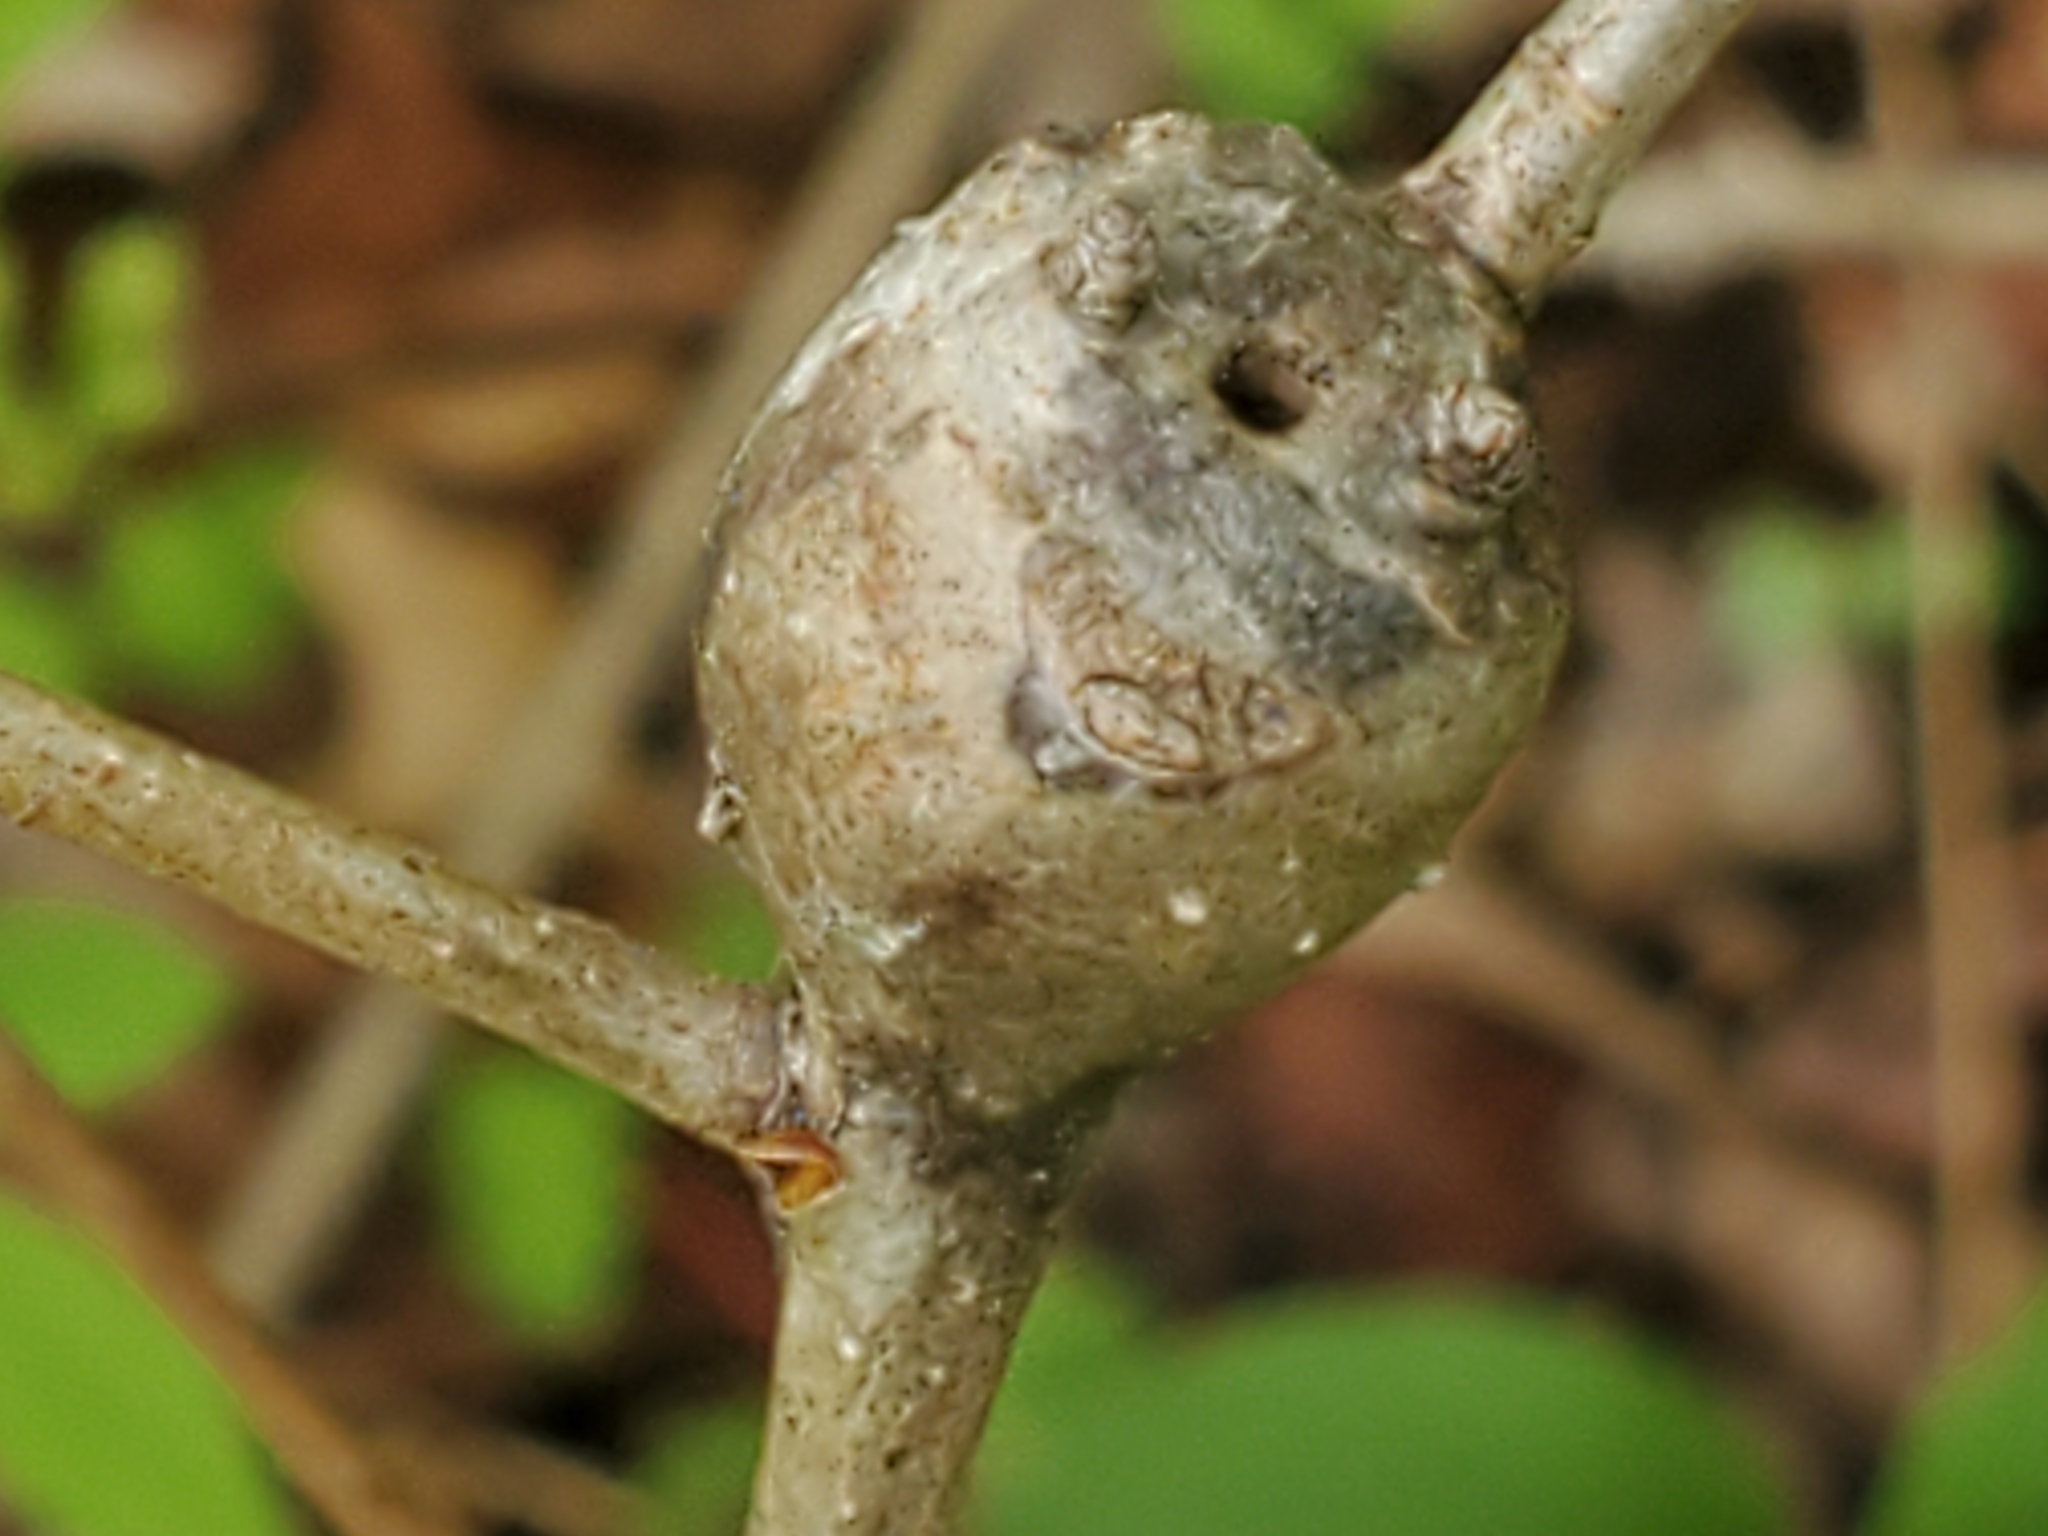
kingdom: Animalia
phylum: Arthropoda
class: Insecta
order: Hymenoptera
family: Cynipidae
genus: Callirhytis
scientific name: Callirhytis clavula
